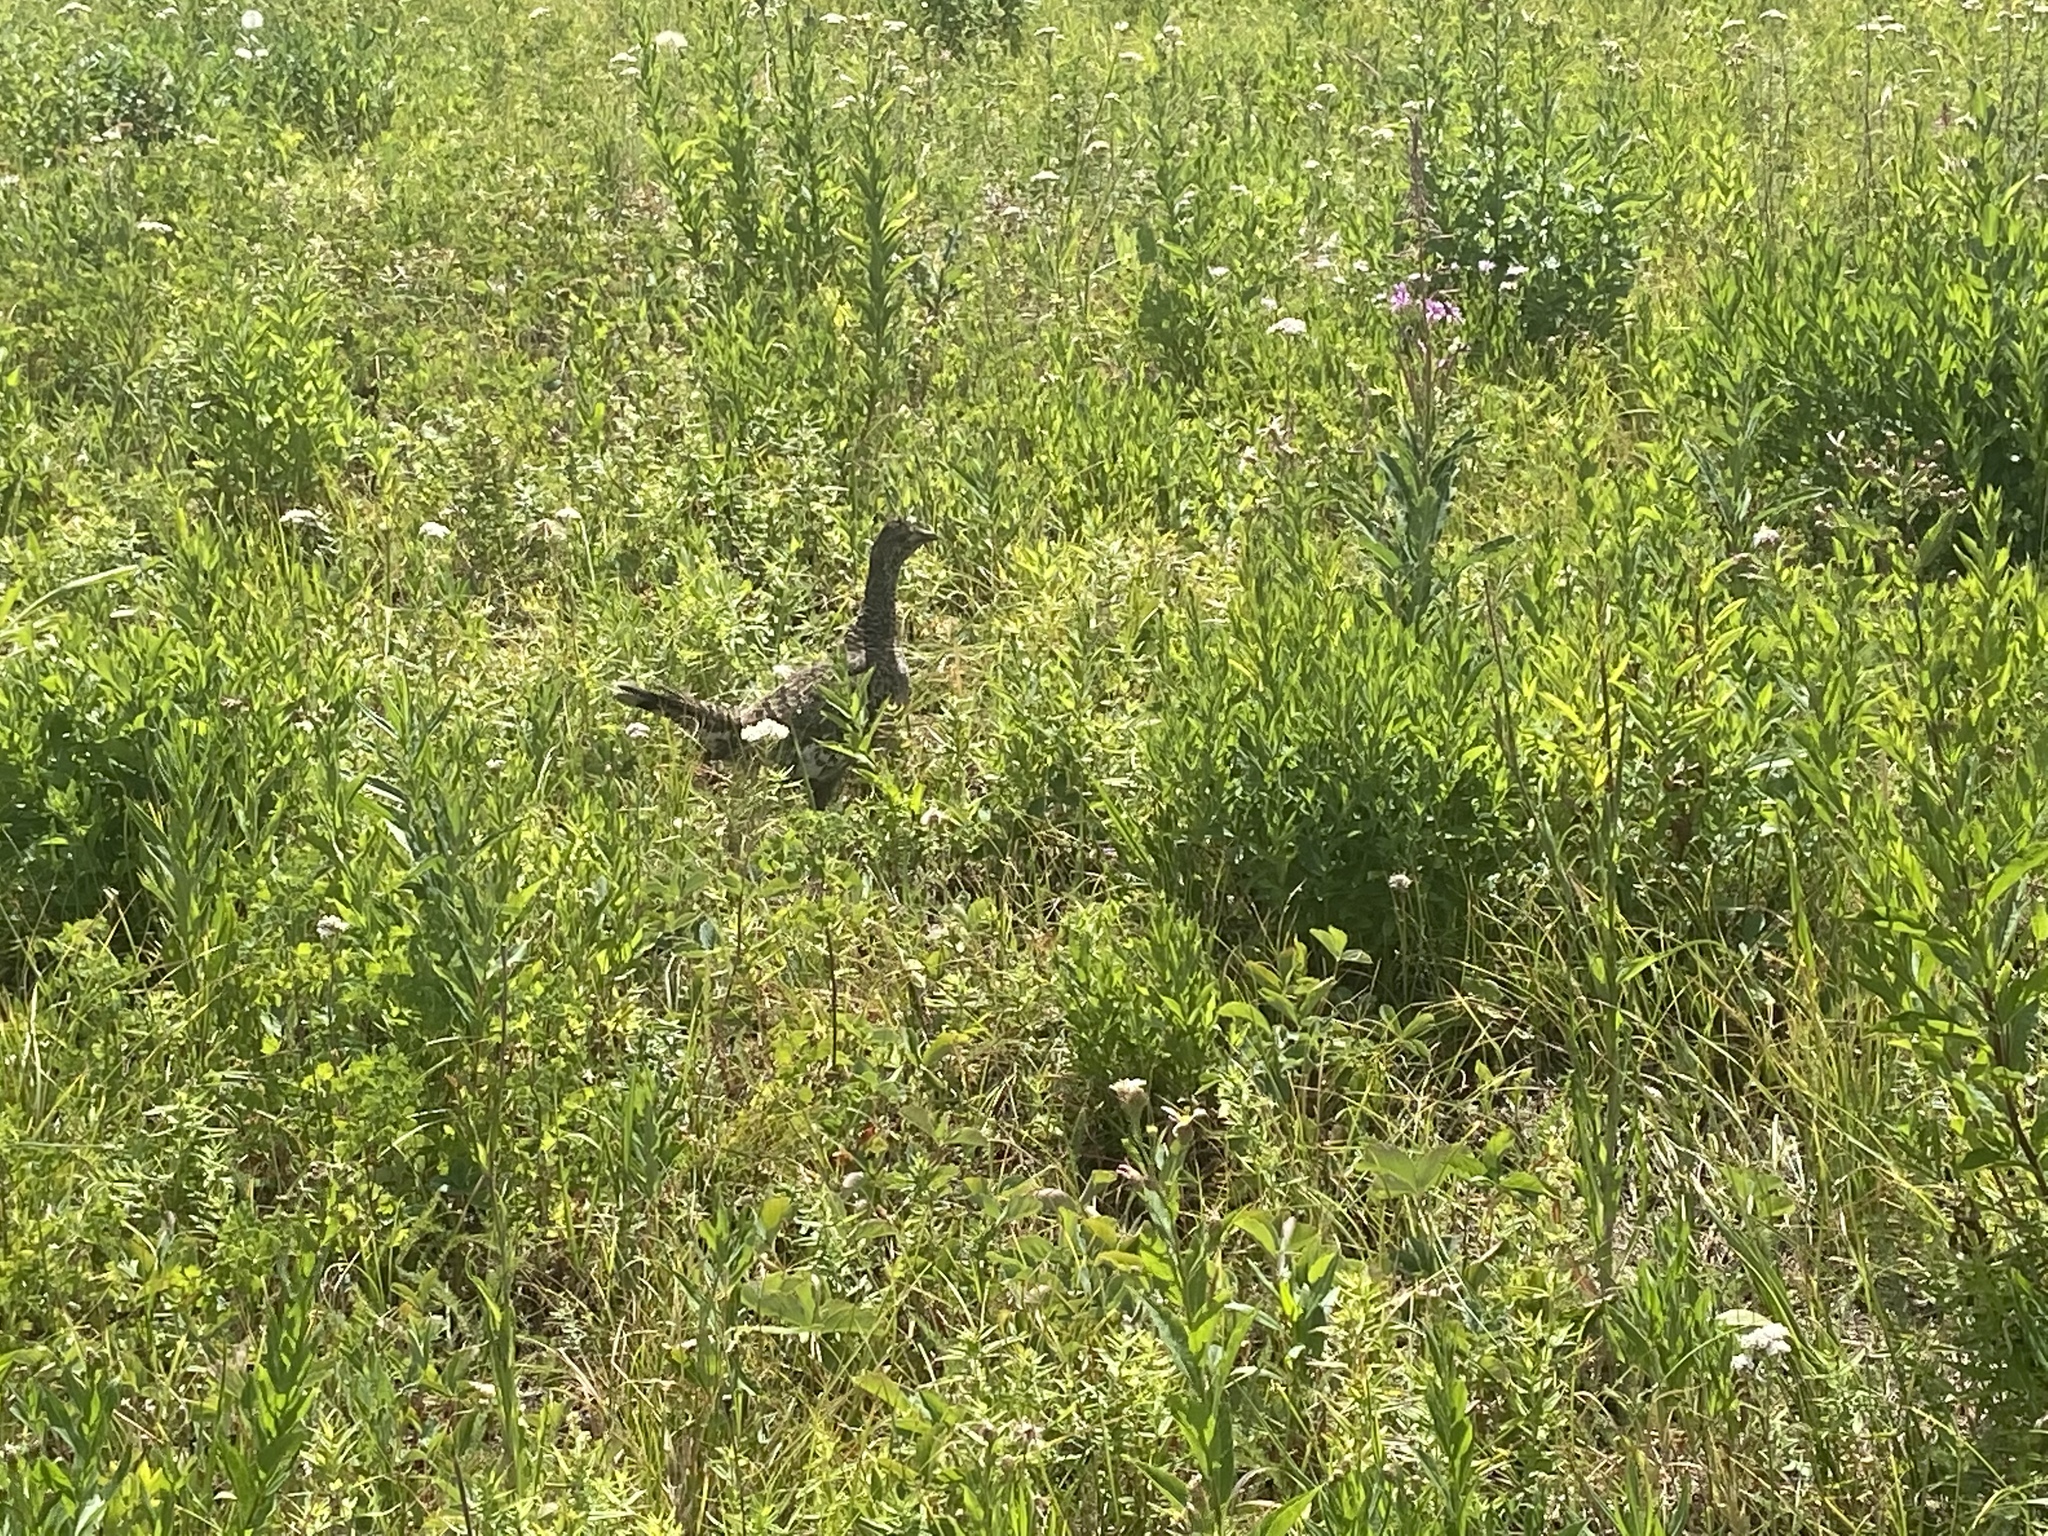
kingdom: Animalia
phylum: Chordata
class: Aves
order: Galliformes
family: Phasianidae
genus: Dendragapus
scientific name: Dendragapus obscurus
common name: Dusky grouse
